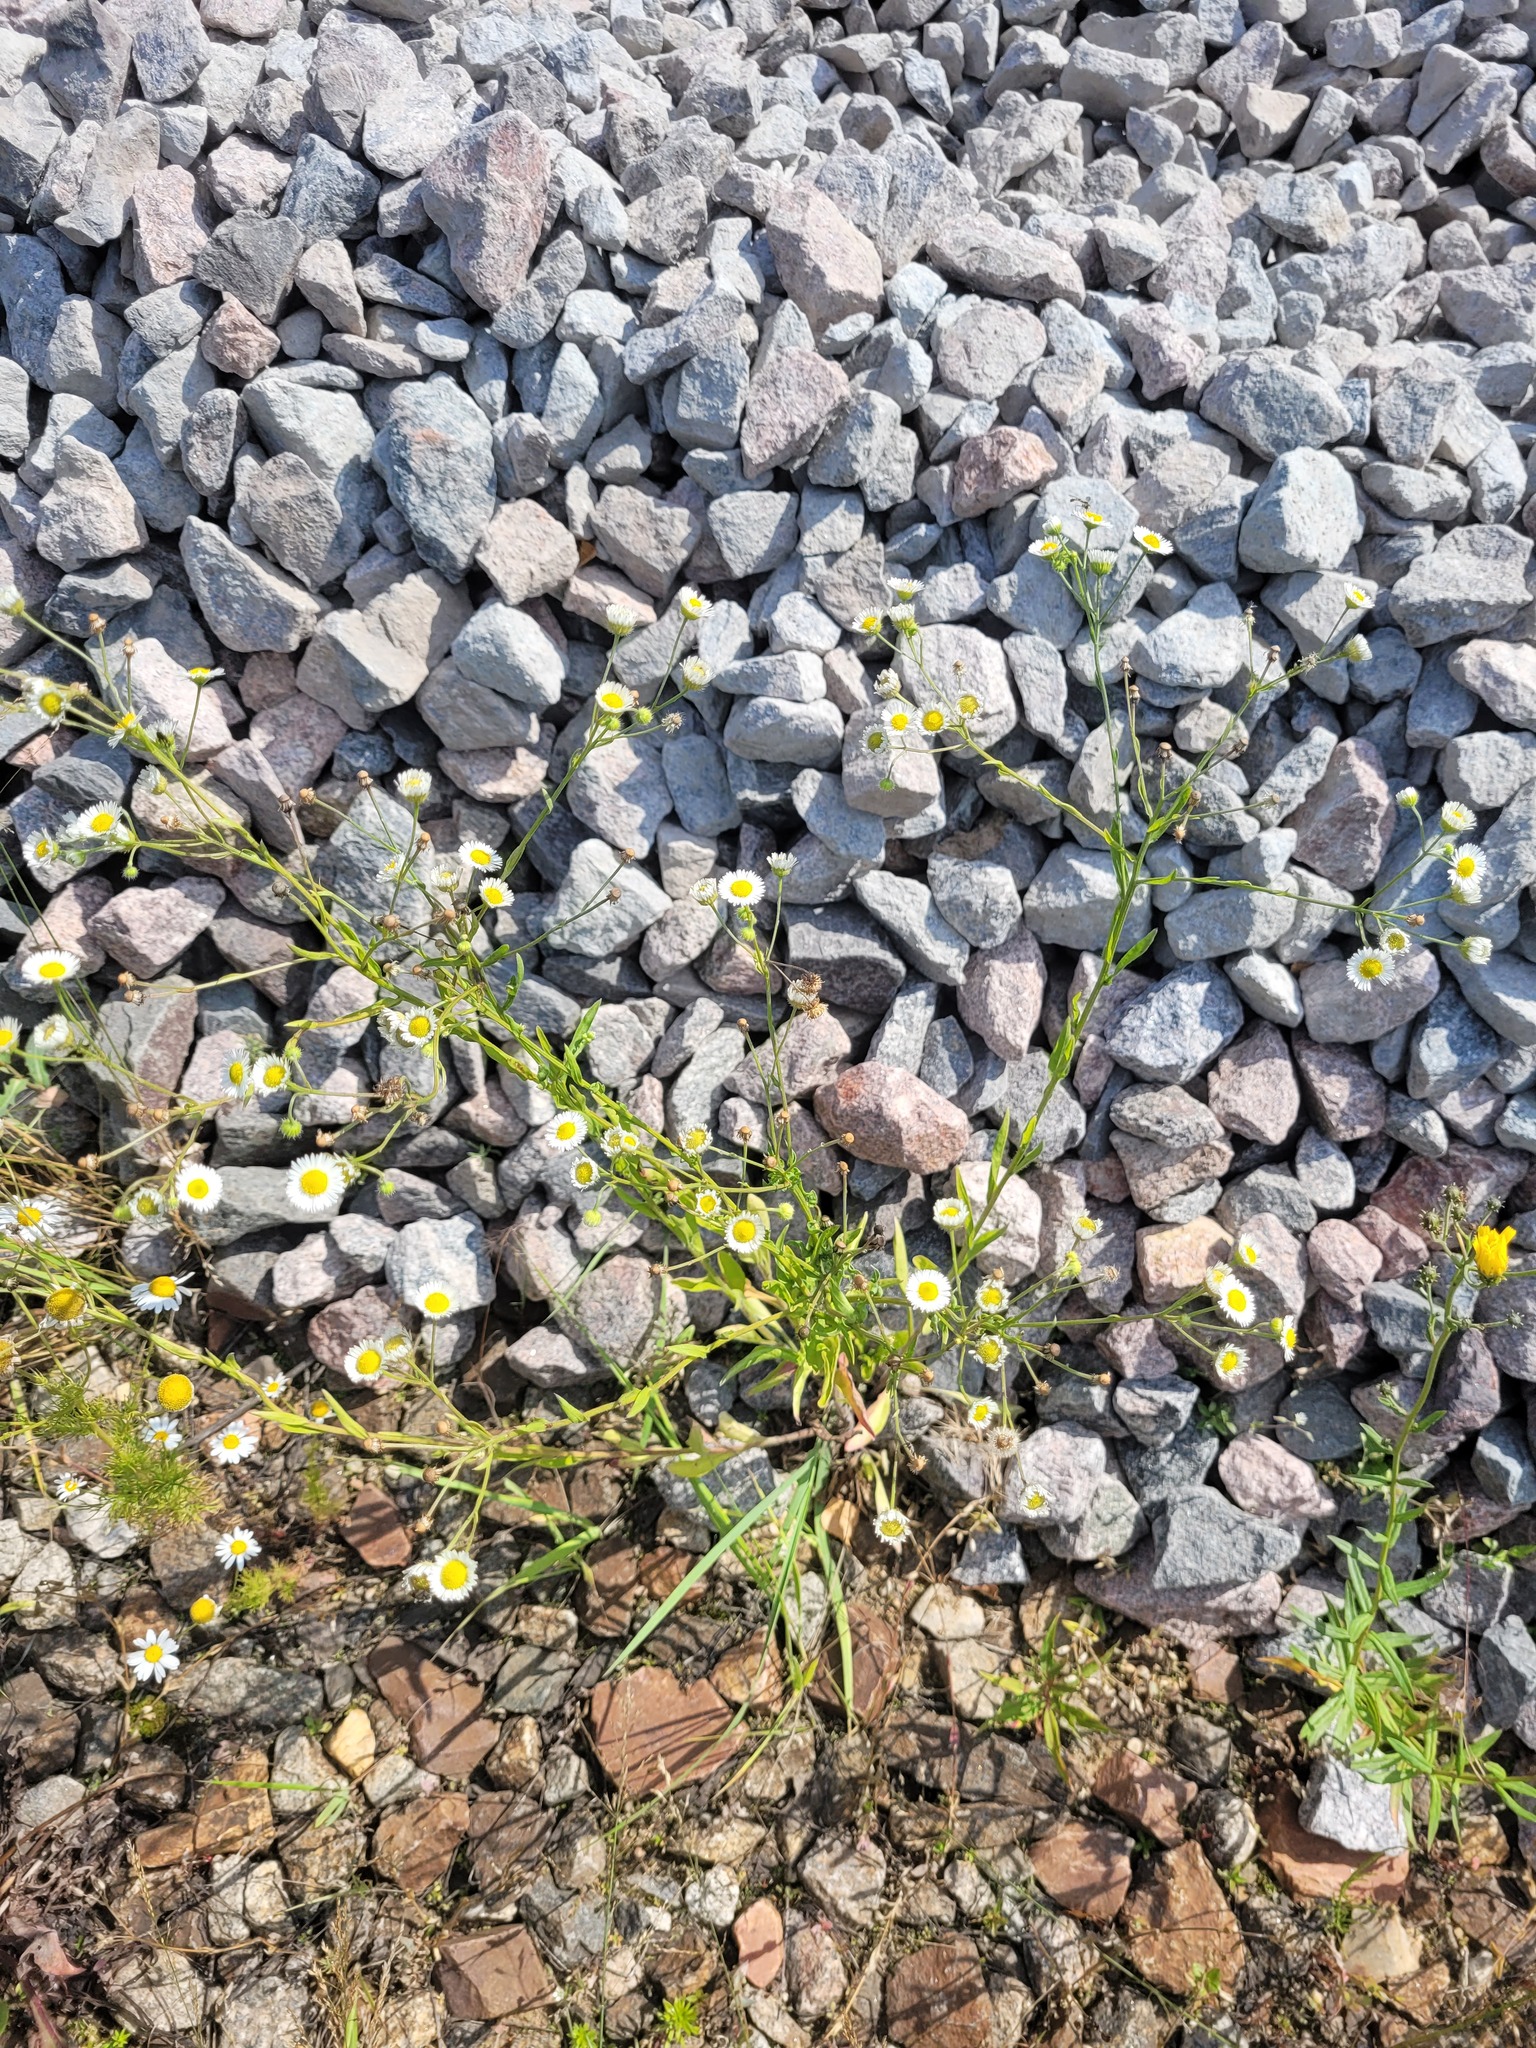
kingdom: Plantae
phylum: Tracheophyta
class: Magnoliopsida
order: Asterales
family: Asteraceae
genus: Erigeron
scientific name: Erigeron annuus
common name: Tall fleabane
